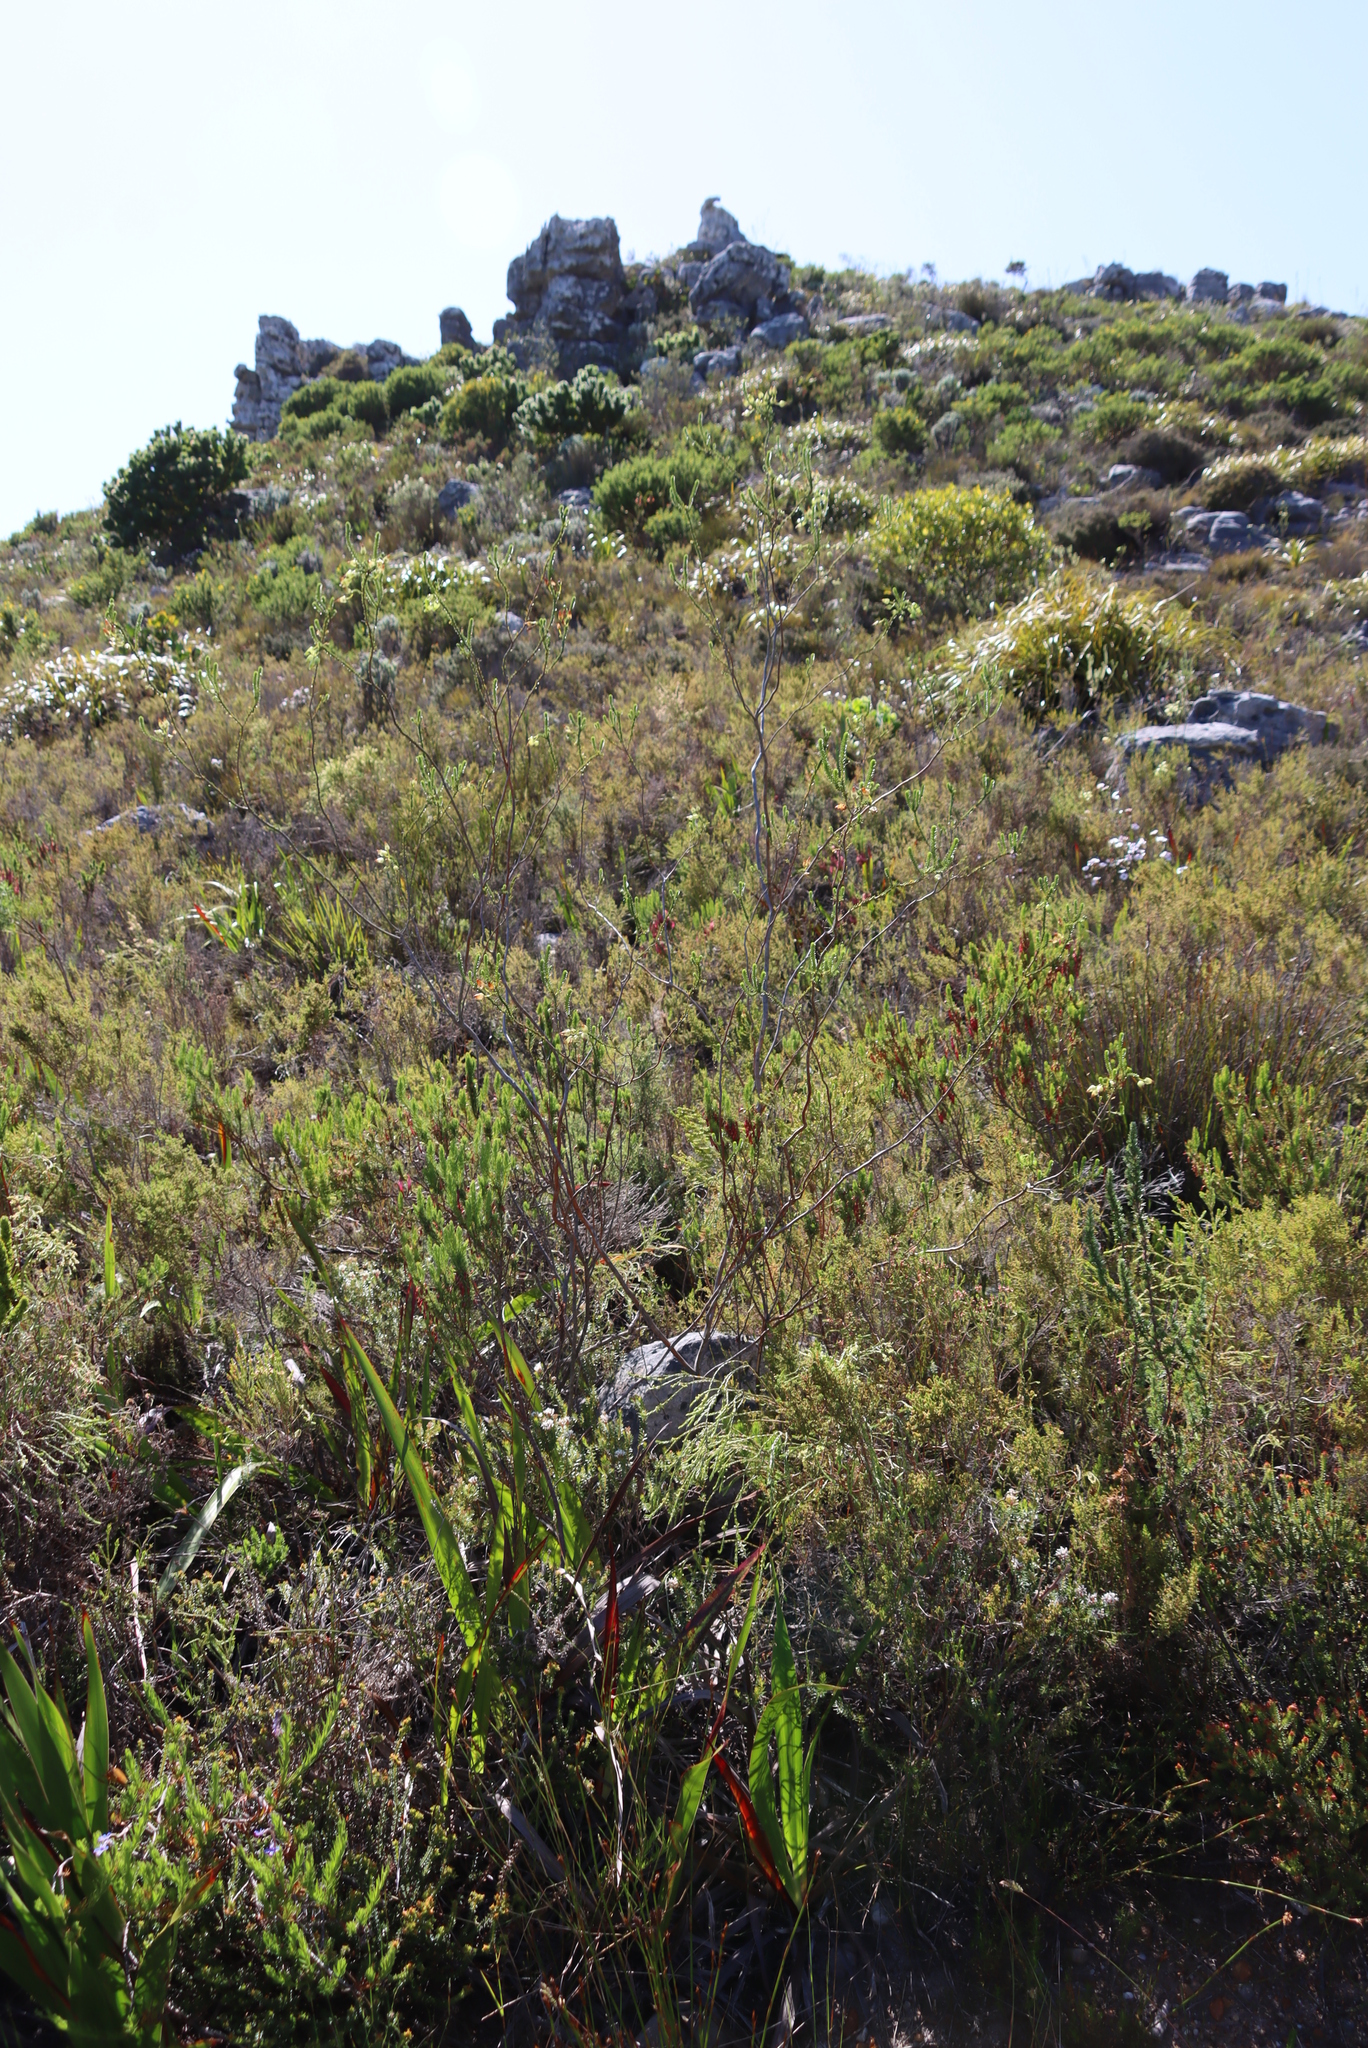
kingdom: Plantae
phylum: Tracheophyta
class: Magnoliopsida
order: Ericales
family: Ericaceae
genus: Erica
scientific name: Erica urna-viridis
